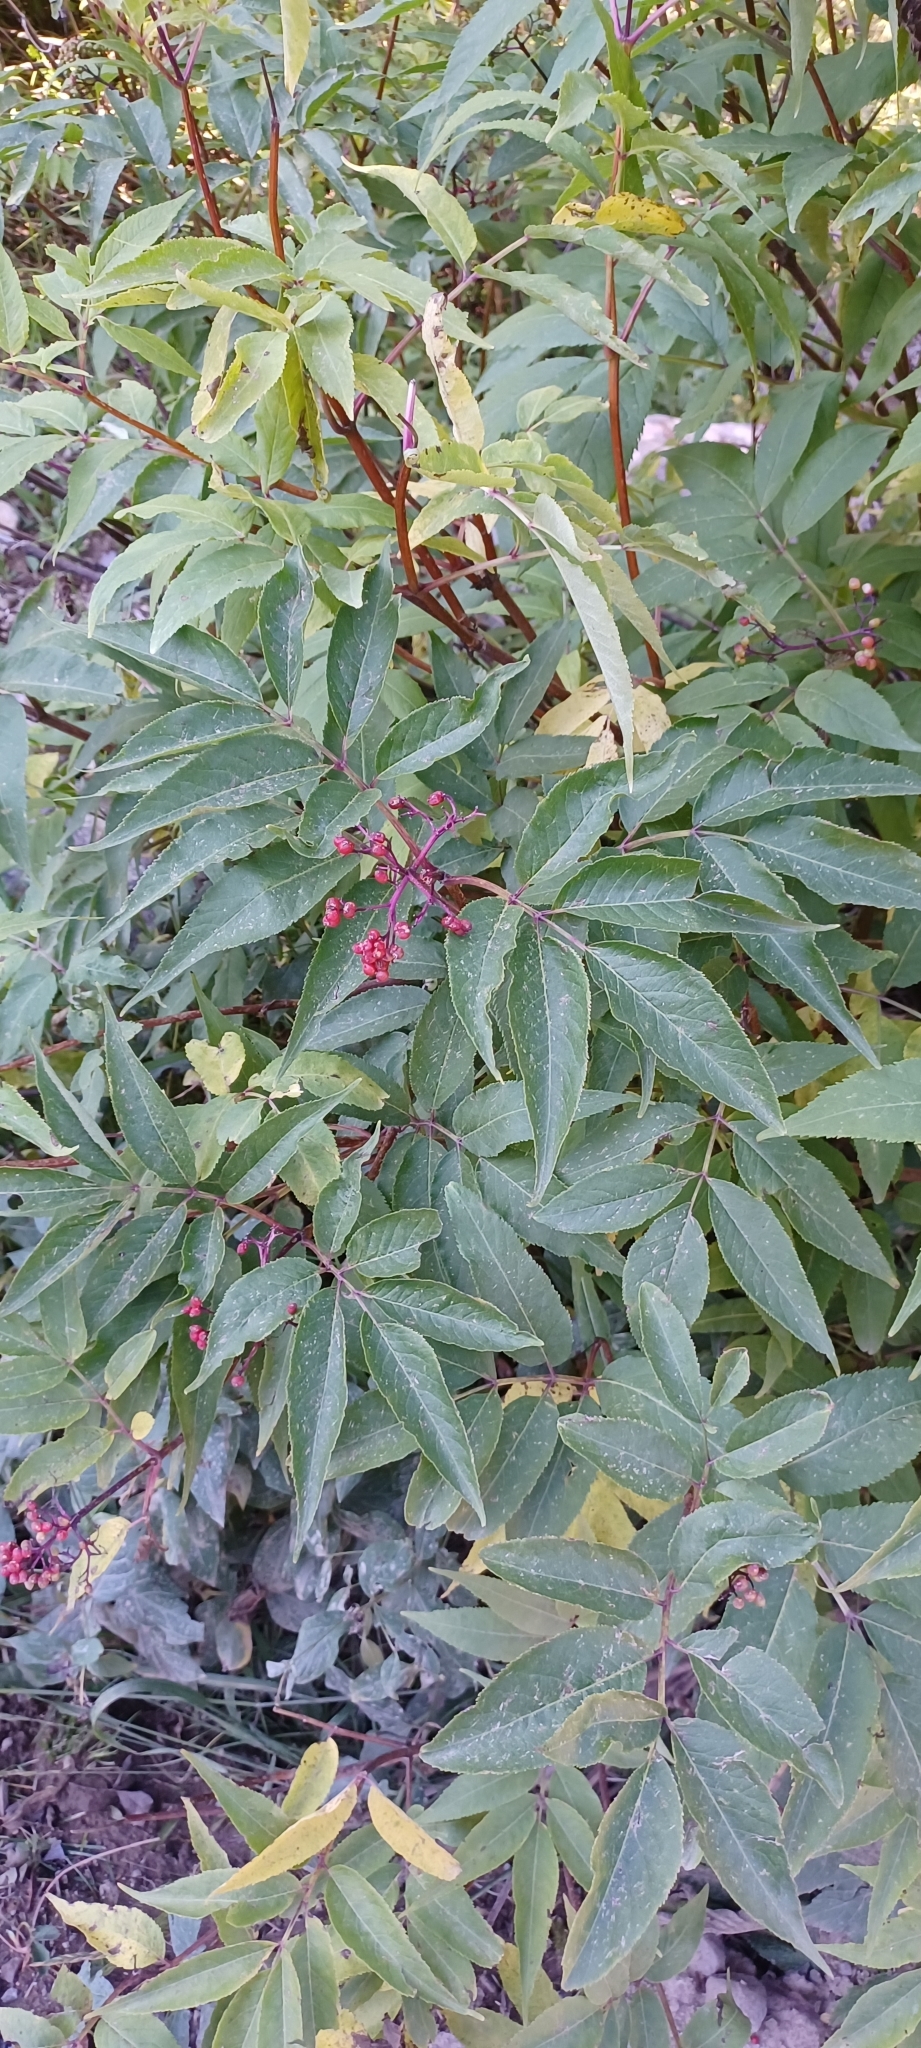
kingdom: Plantae
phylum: Tracheophyta
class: Magnoliopsida
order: Dipsacales
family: Viburnaceae
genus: Sambucus
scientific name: Sambucus racemosa
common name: Red-berried elder
